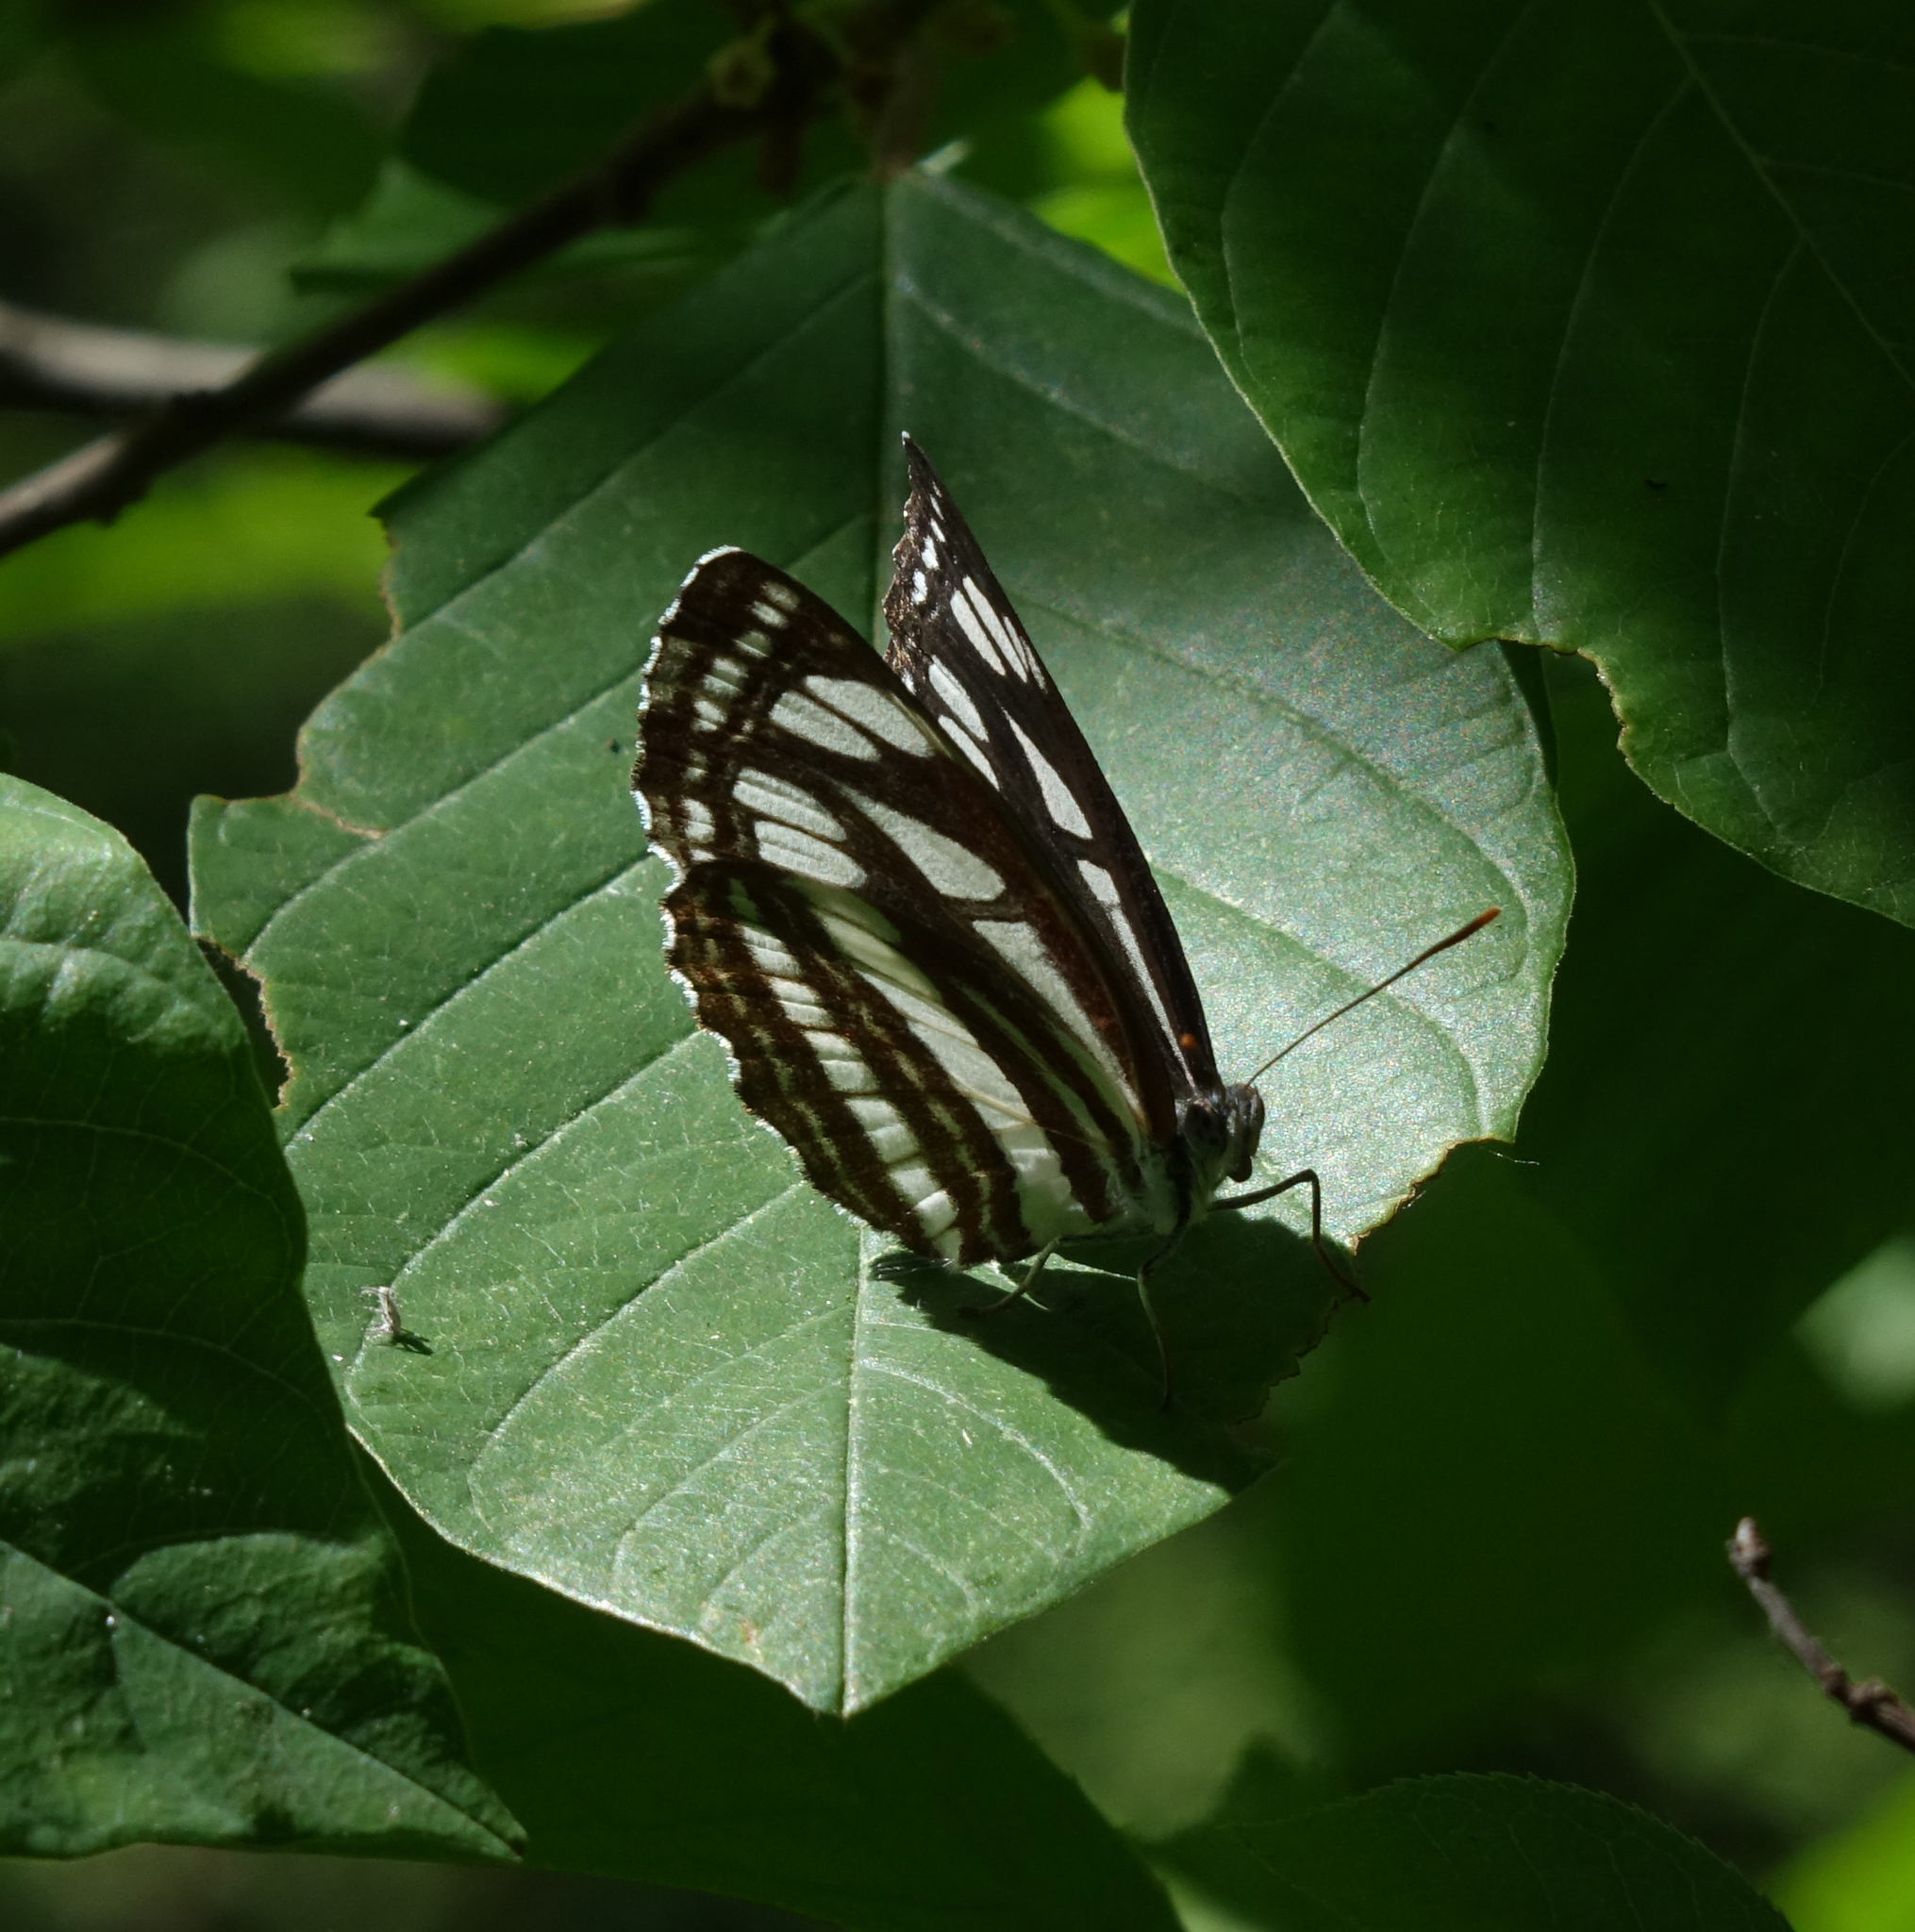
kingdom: Animalia
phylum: Arthropoda
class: Insecta
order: Lepidoptera
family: Nymphalidae
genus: Neptis
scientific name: Neptis sappho
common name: Common glider
